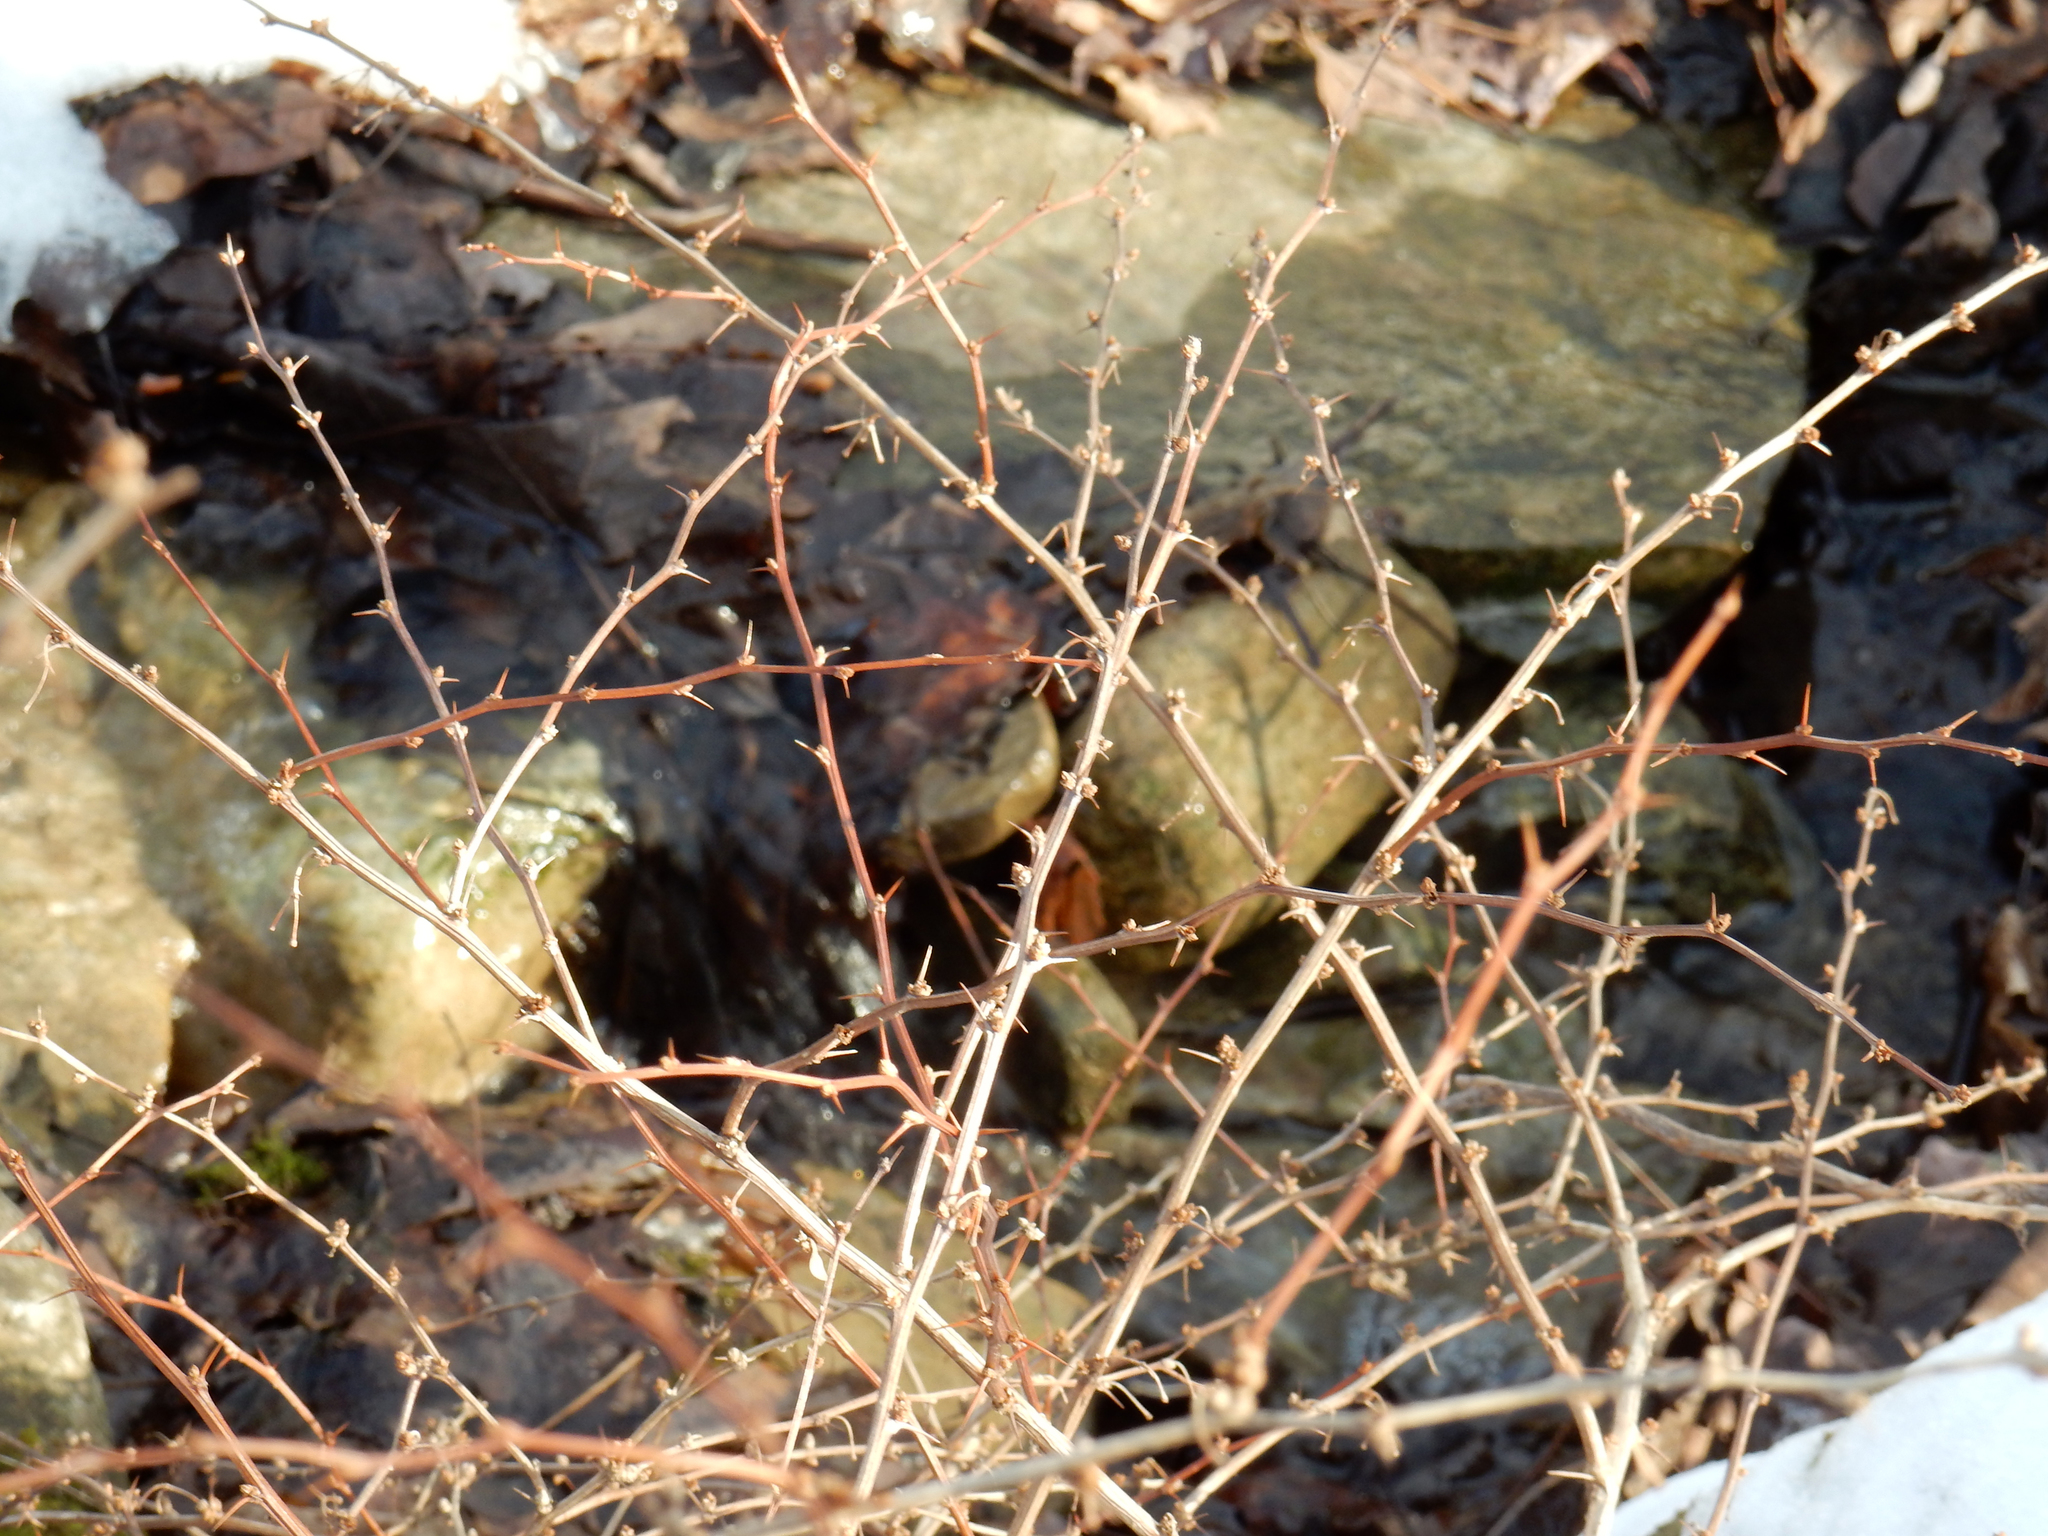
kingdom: Plantae
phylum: Tracheophyta
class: Magnoliopsida
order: Ranunculales
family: Berberidaceae
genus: Berberis
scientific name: Berberis thunbergii
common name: Japanese barberry
